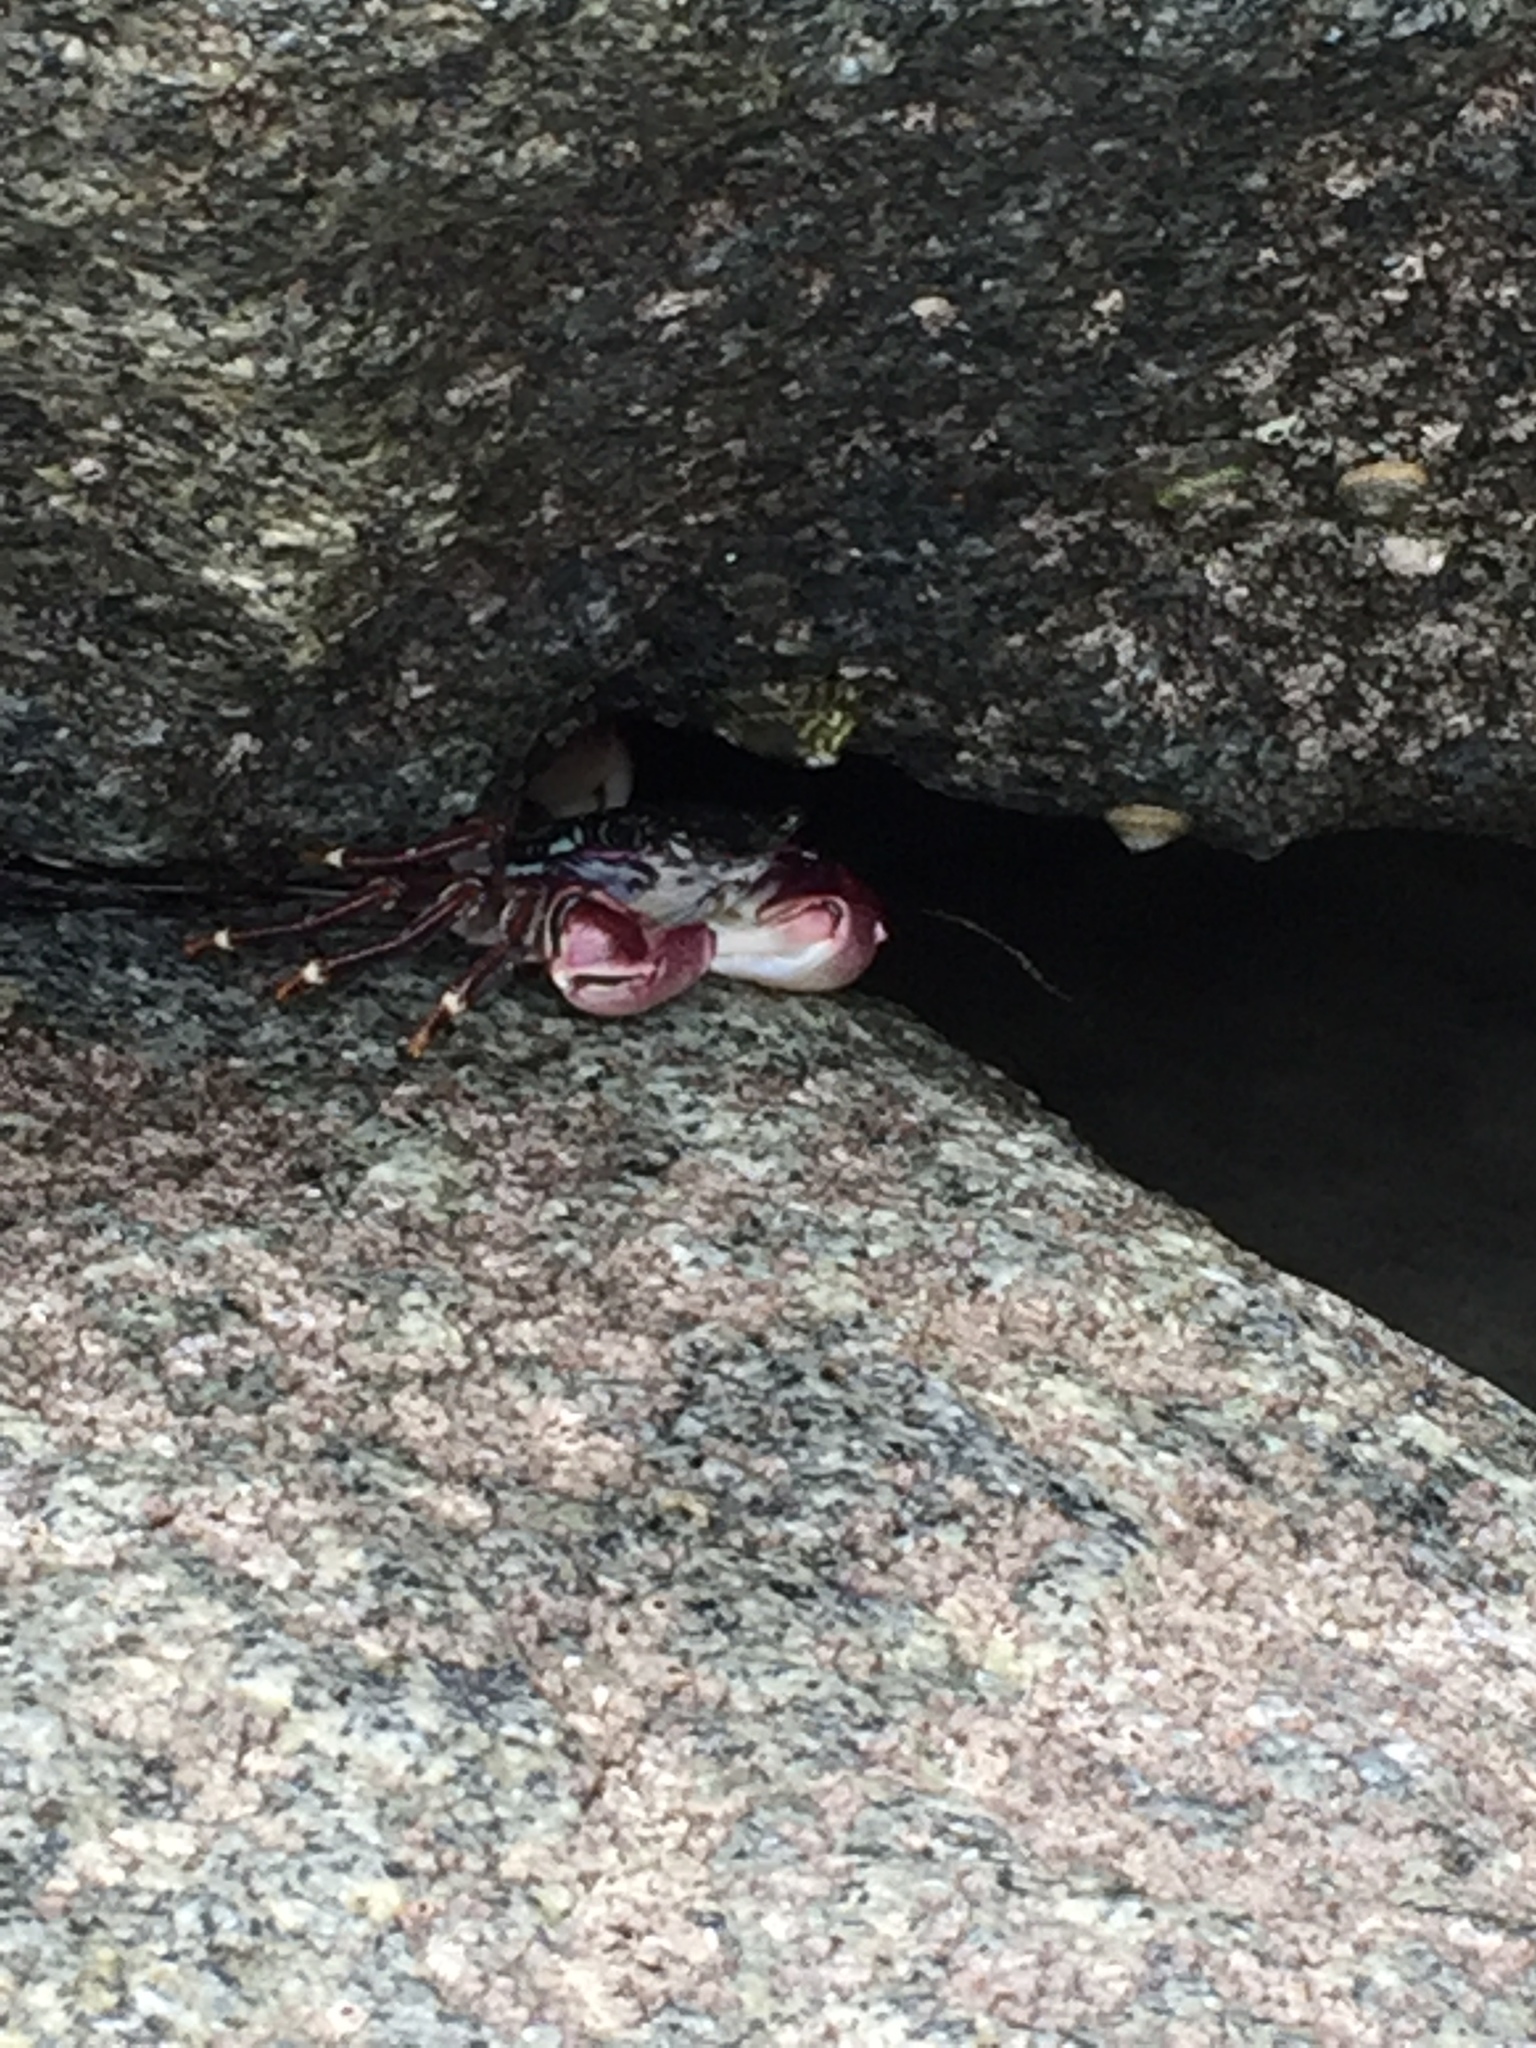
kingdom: Animalia
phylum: Arthropoda
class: Malacostraca
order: Decapoda
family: Grapsidae
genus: Pachygrapsus
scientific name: Pachygrapsus crassipes
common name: Striped shore crab
